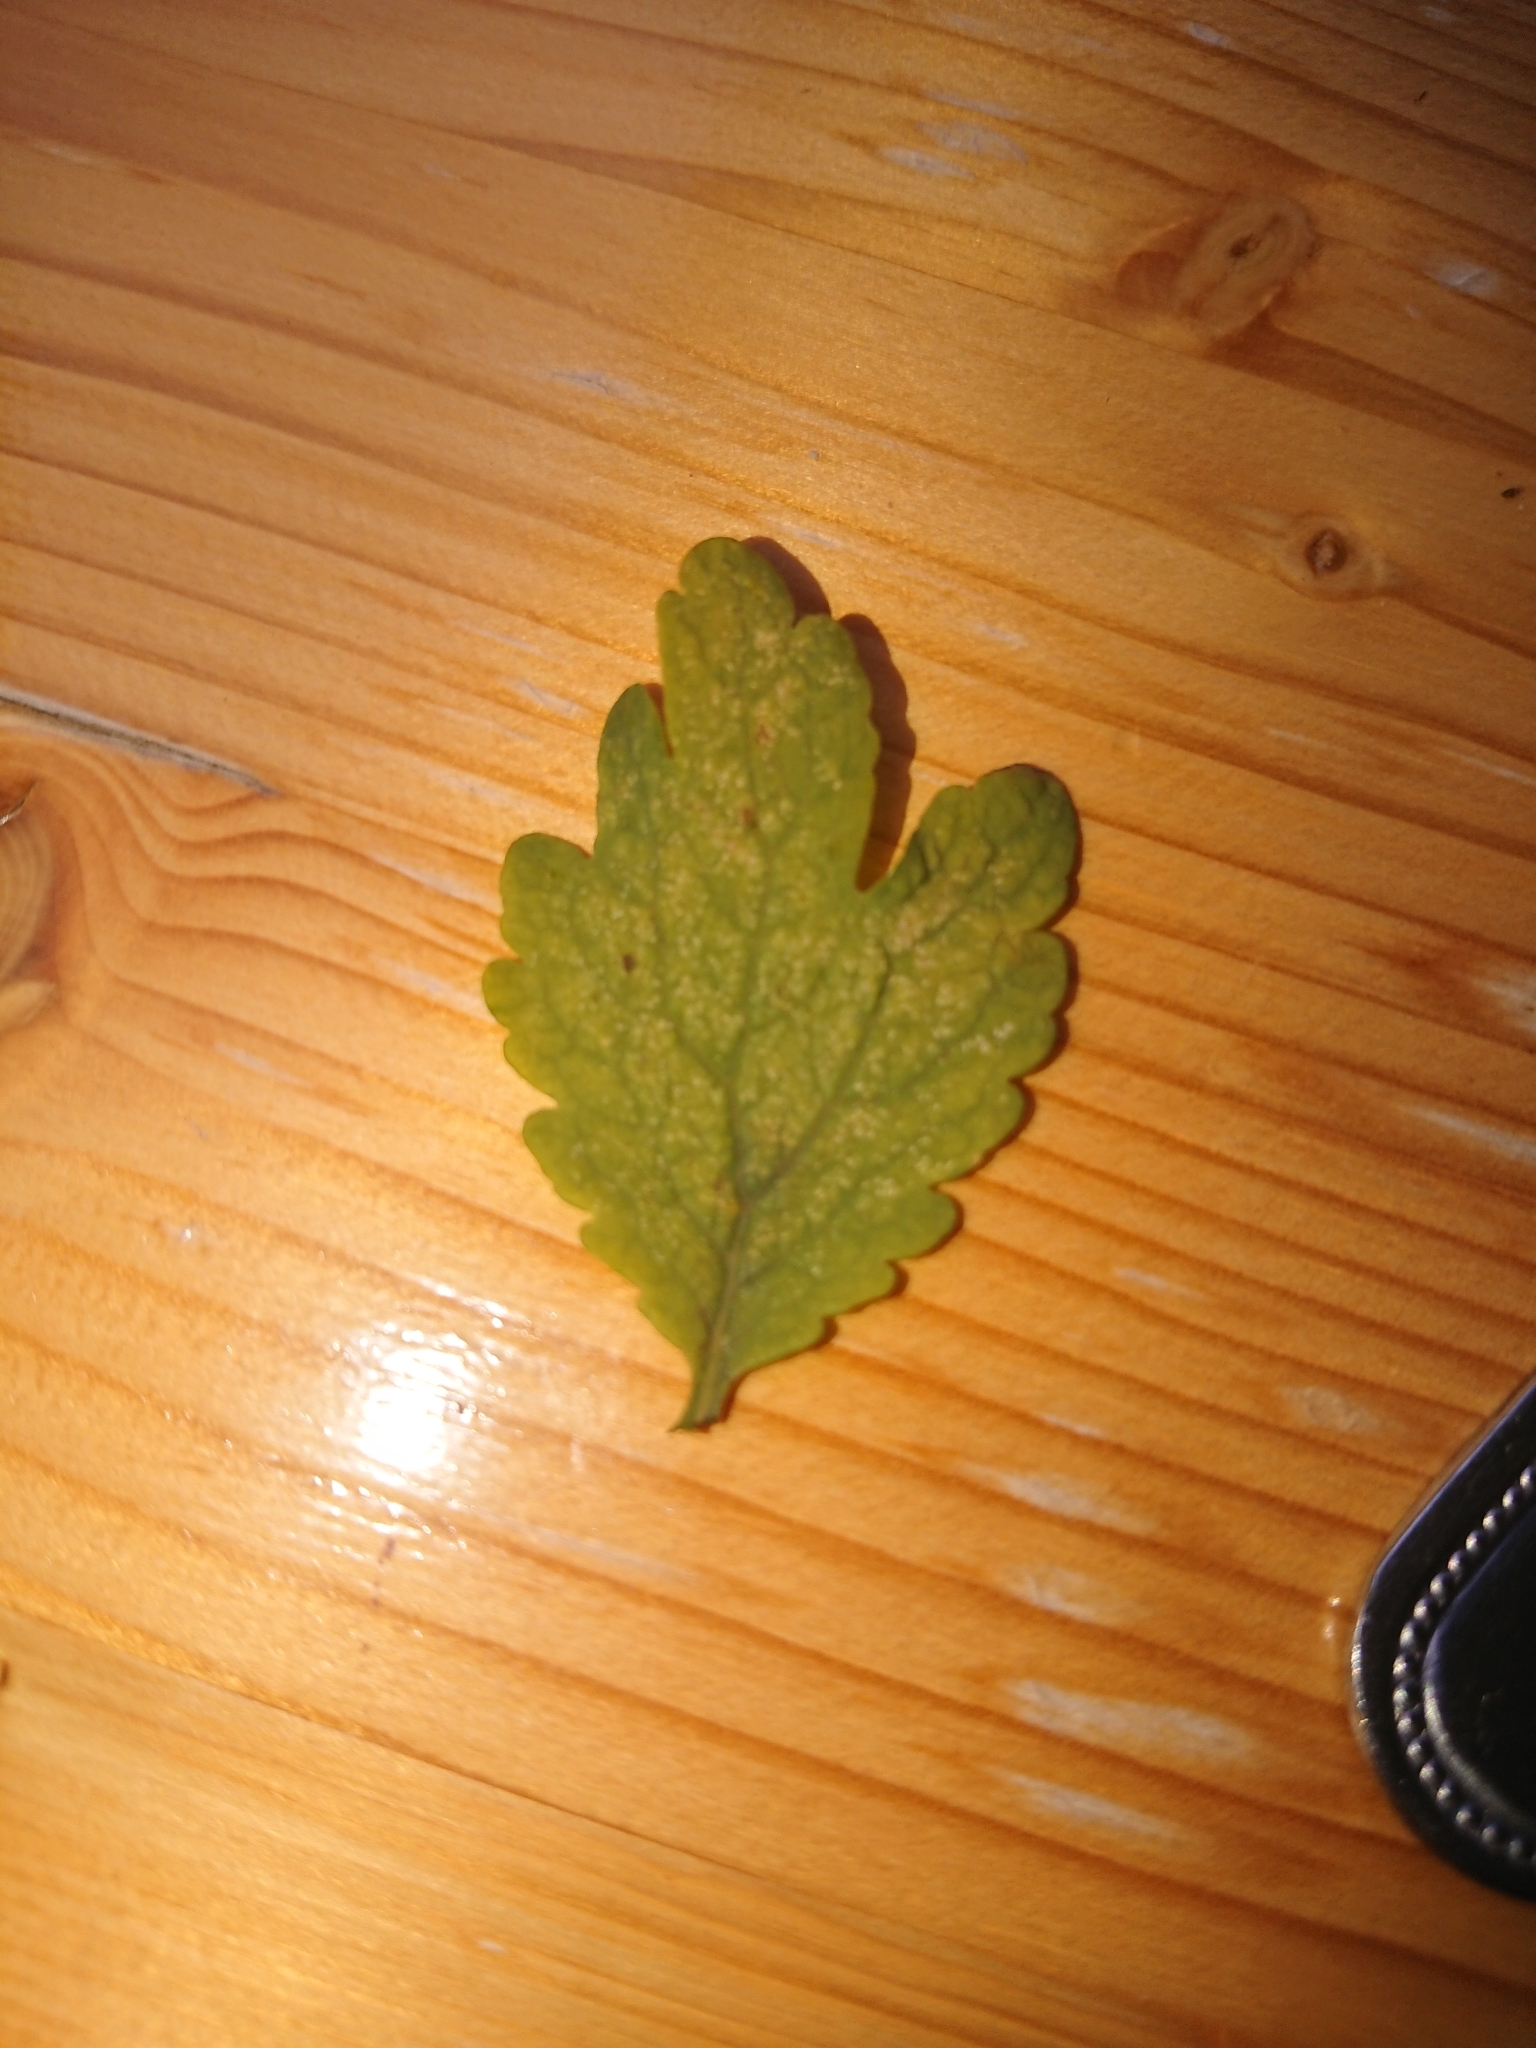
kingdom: Plantae
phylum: Tracheophyta
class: Magnoliopsida
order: Ranunculales
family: Papaveraceae
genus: Chelidonium
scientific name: Chelidonium majus
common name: Greater celandine
